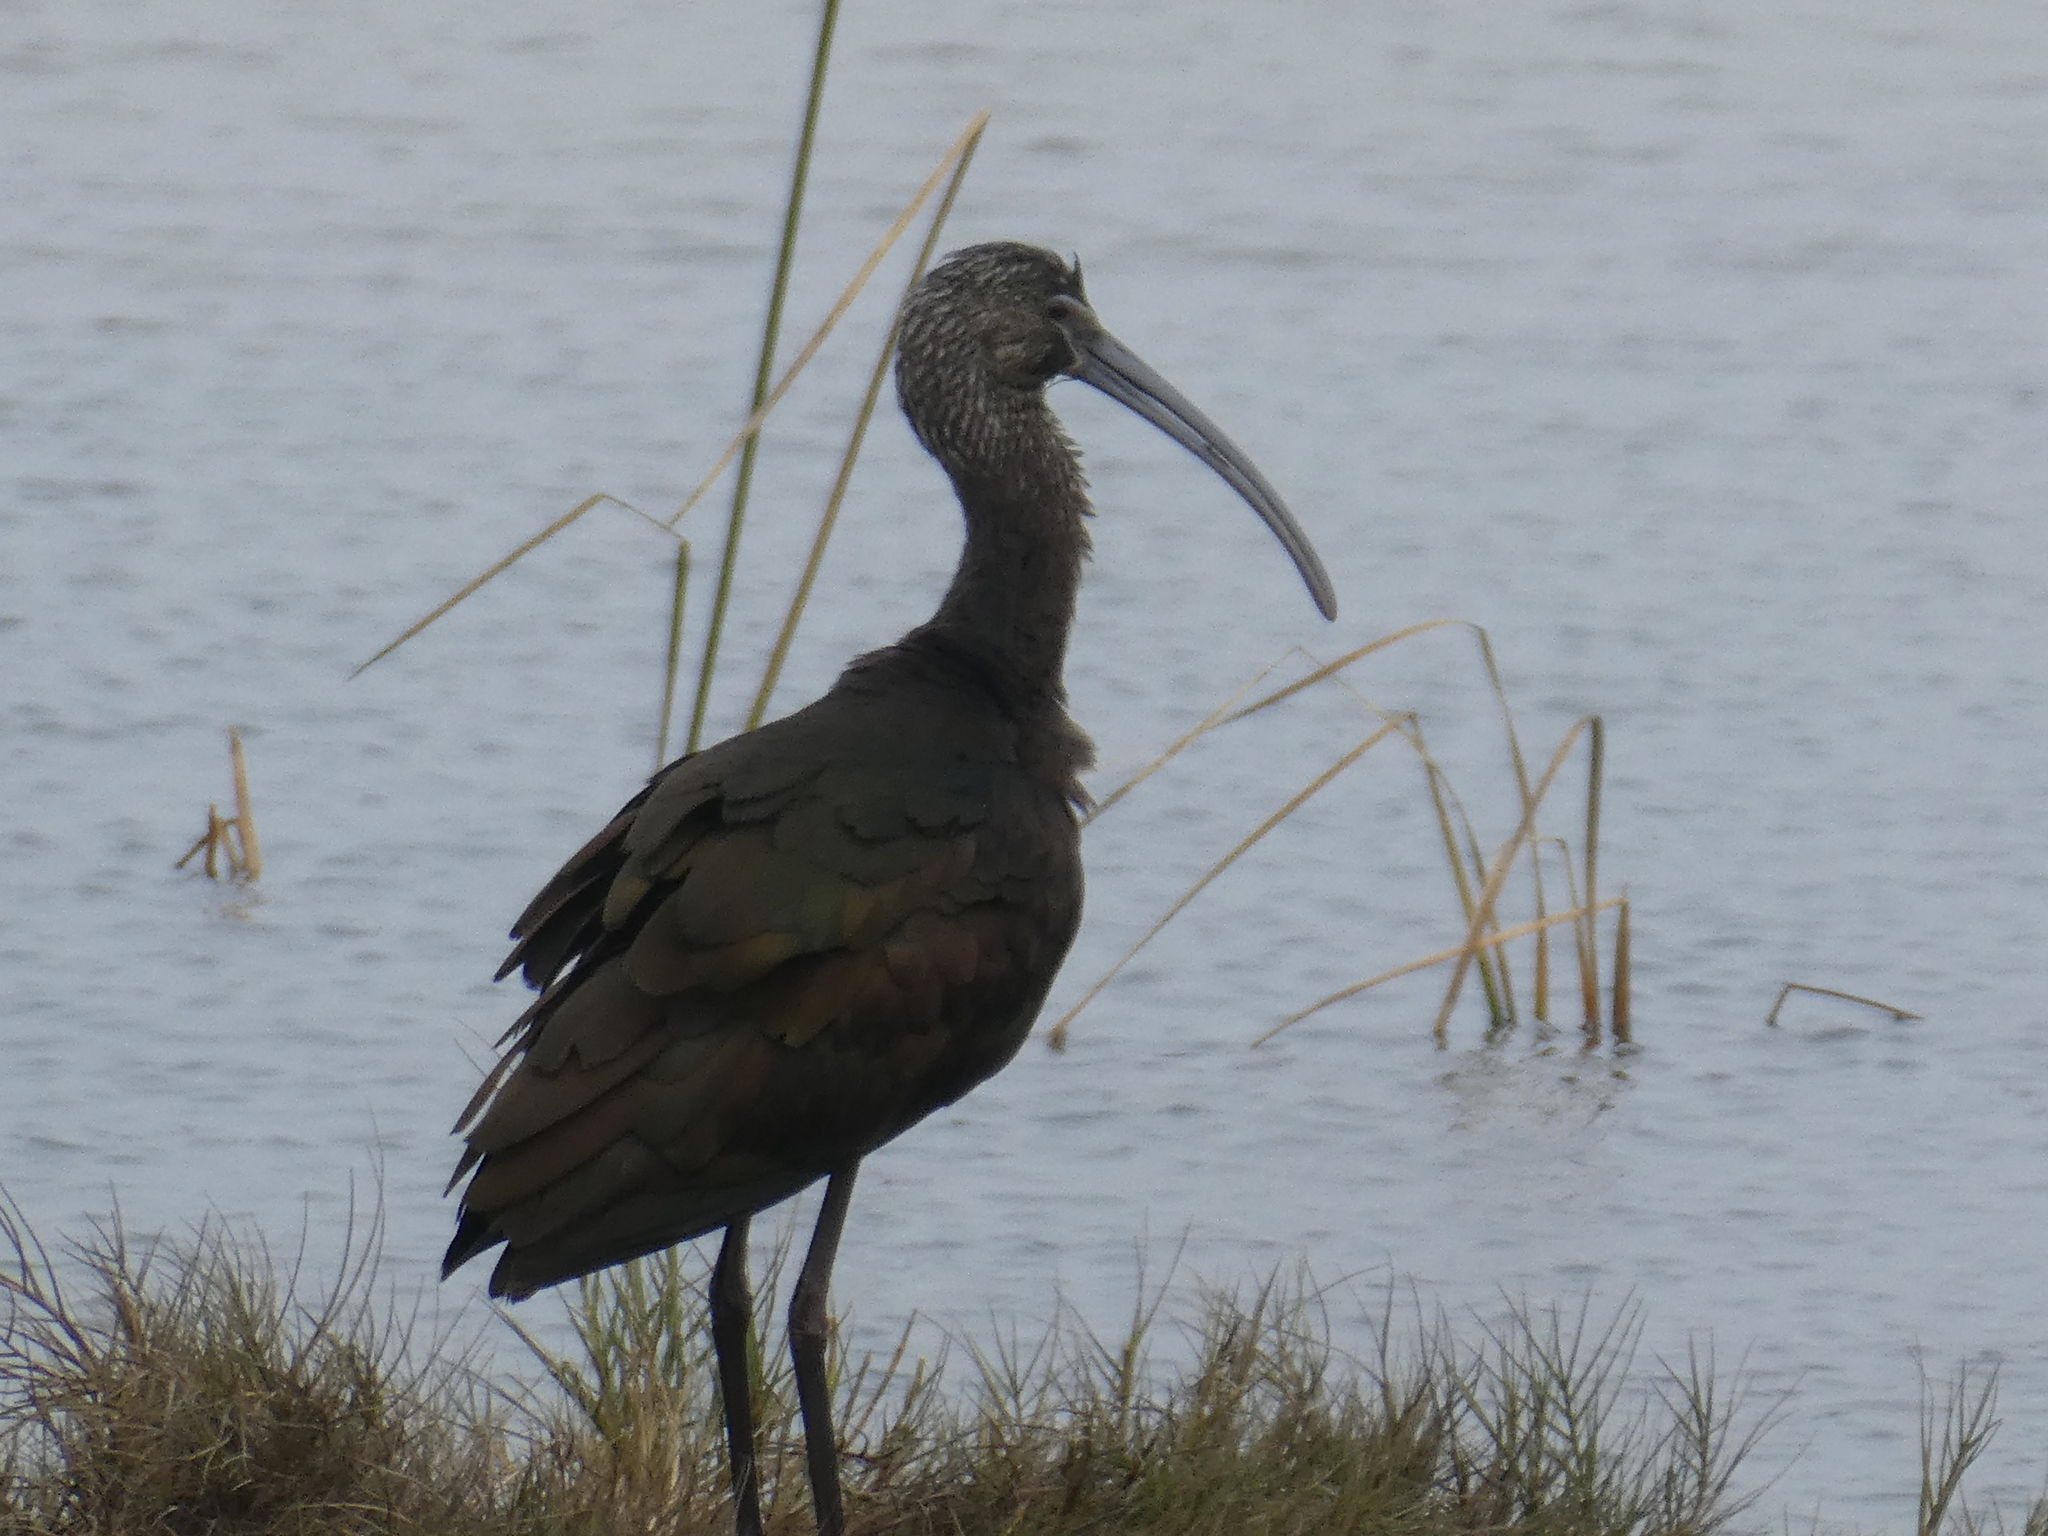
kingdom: Animalia
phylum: Chordata
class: Aves
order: Pelecaniformes
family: Threskiornithidae
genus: Plegadis
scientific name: Plegadis chihi
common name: White-faced ibis
